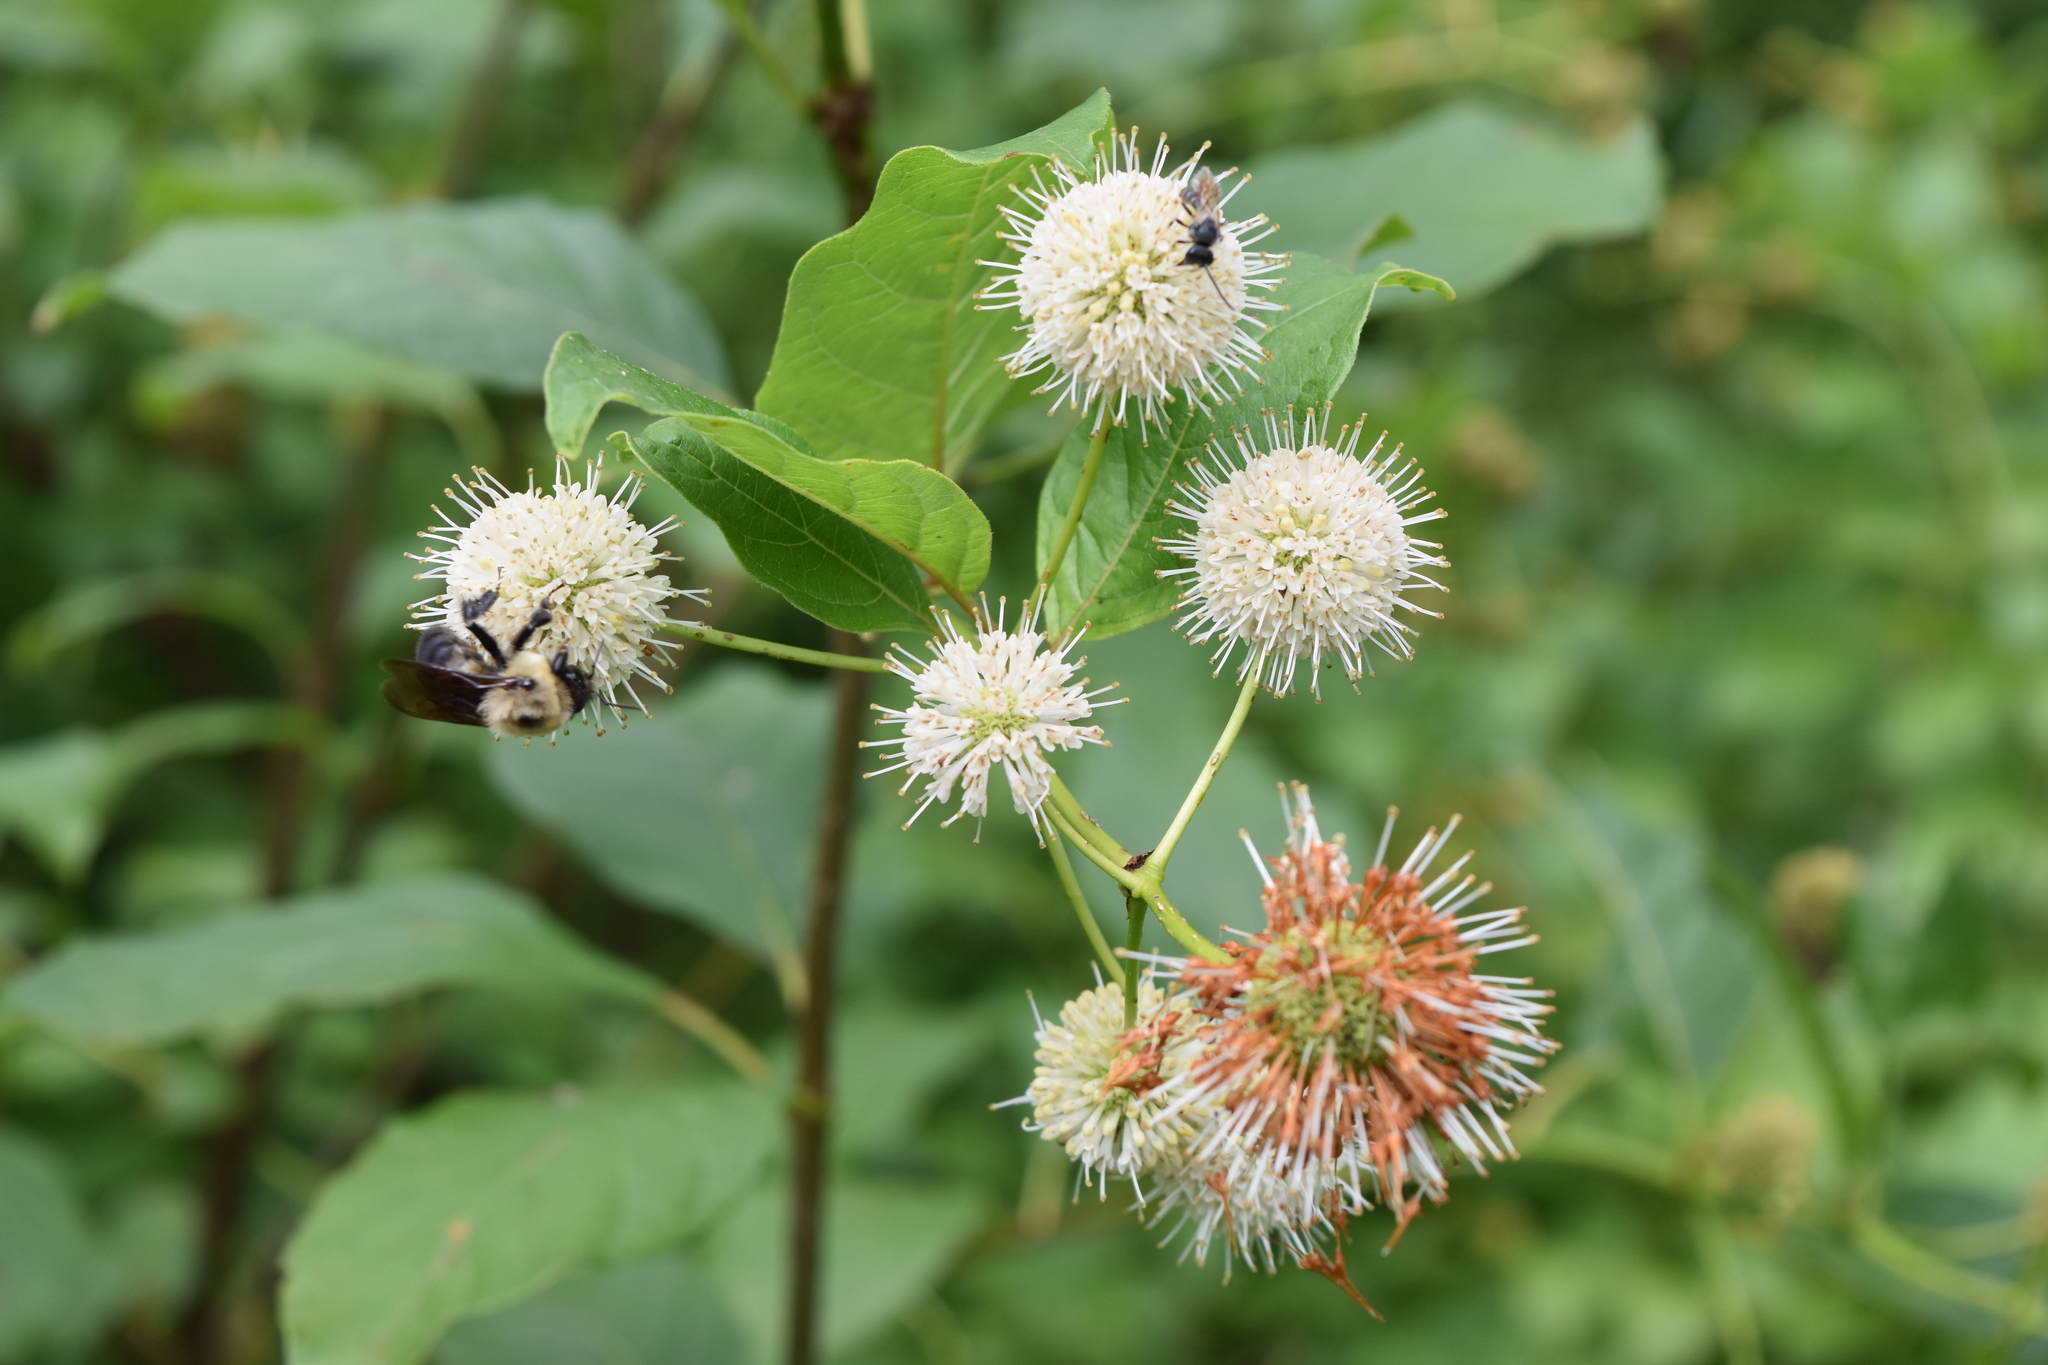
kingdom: Plantae
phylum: Tracheophyta
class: Magnoliopsida
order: Gentianales
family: Rubiaceae
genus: Cephalanthus
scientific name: Cephalanthus occidentalis
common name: Button-willow
